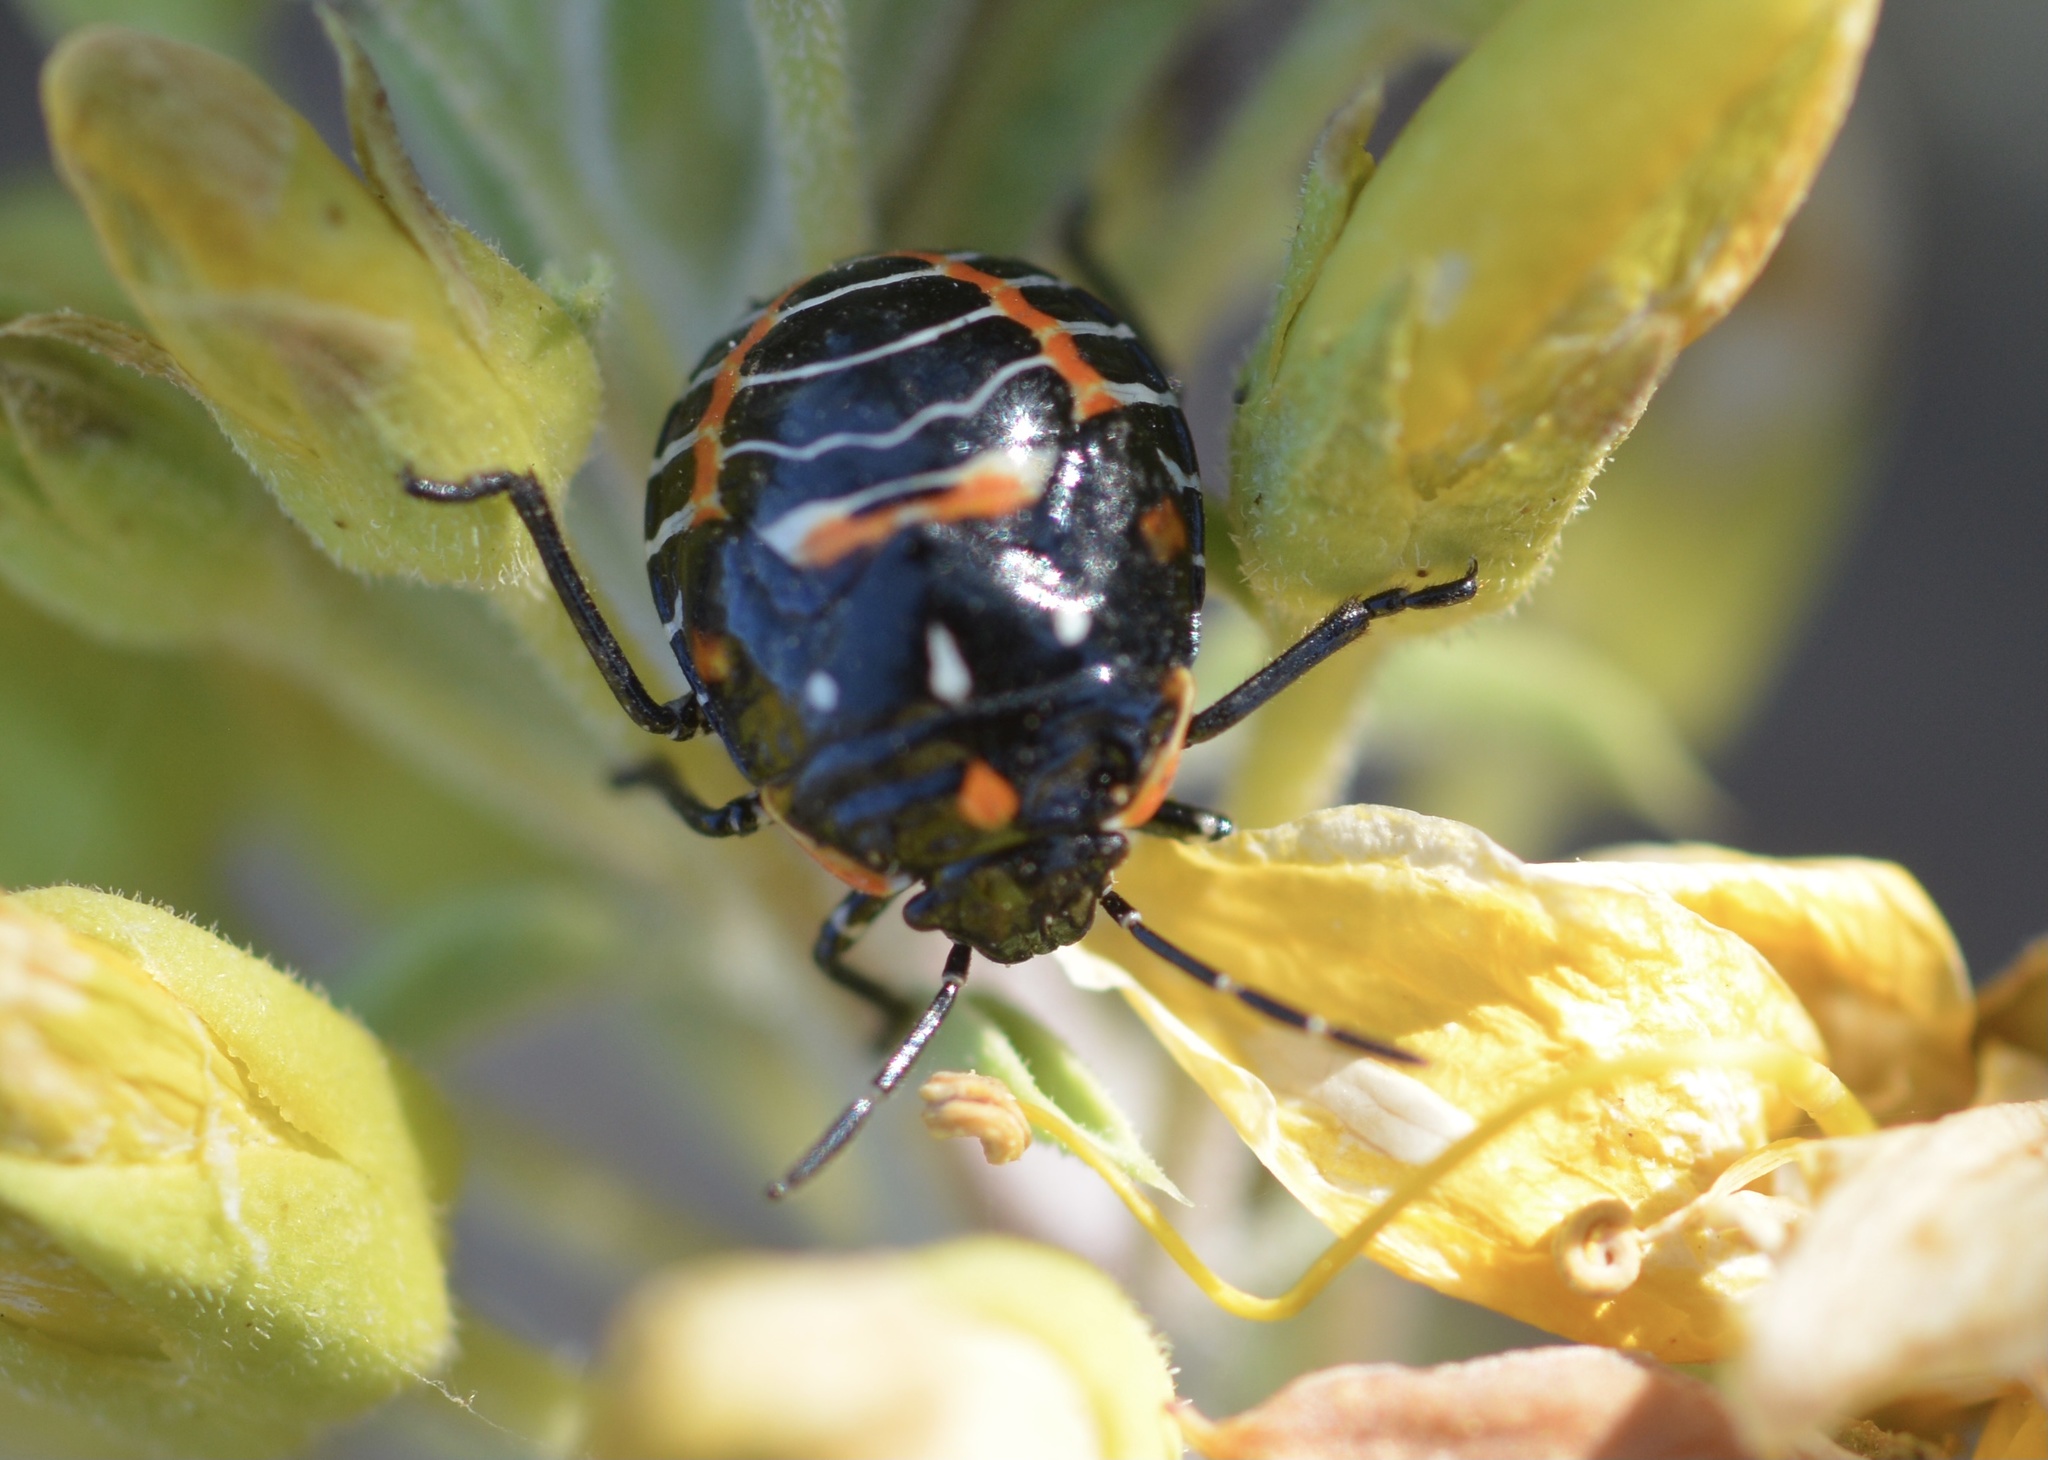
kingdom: Animalia
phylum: Arthropoda
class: Insecta
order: Hemiptera
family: Pentatomidae
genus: Murgantia
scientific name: Murgantia histrionica
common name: Harlequin bug
